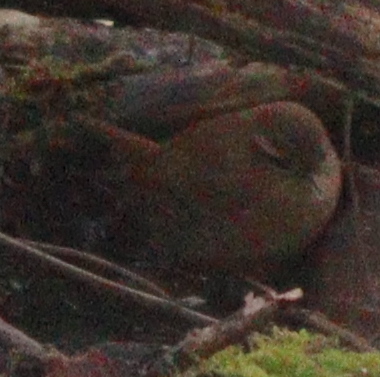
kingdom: Animalia
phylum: Chordata
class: Aves
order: Passeriformes
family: Troglodytidae
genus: Troglodytes
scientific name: Troglodytes troglodytes
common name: Eurasian wren
